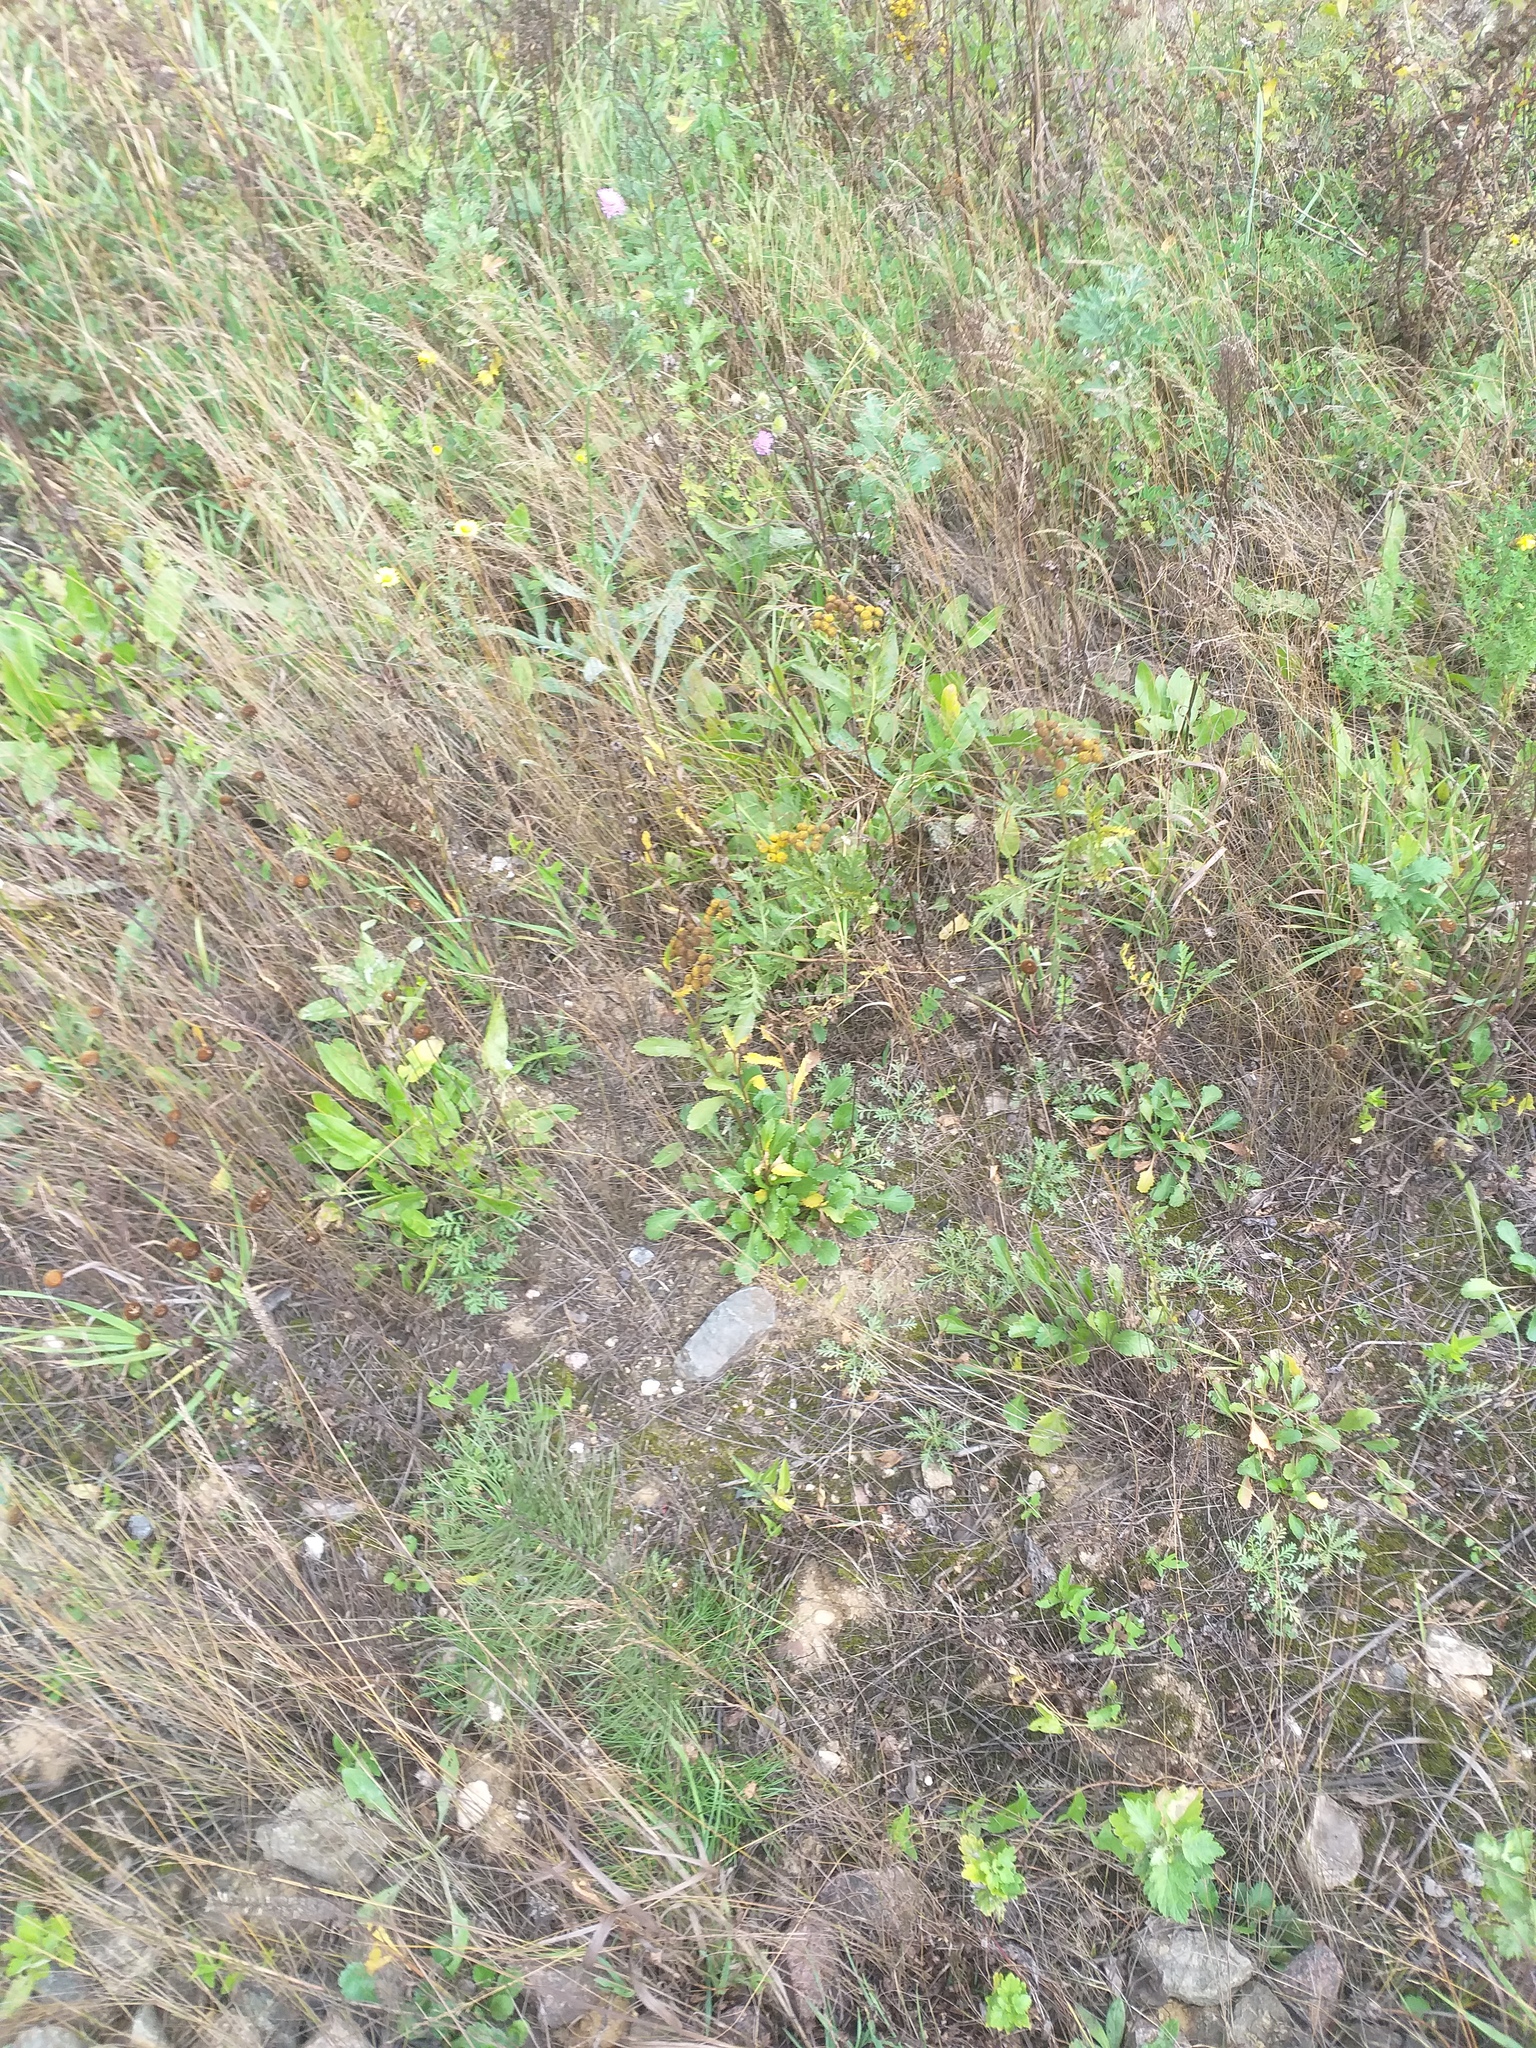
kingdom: Plantae
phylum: Tracheophyta
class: Magnoliopsida
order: Asterales
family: Asteraceae
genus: Leucanthemum
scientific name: Leucanthemum vulgare
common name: Oxeye daisy
